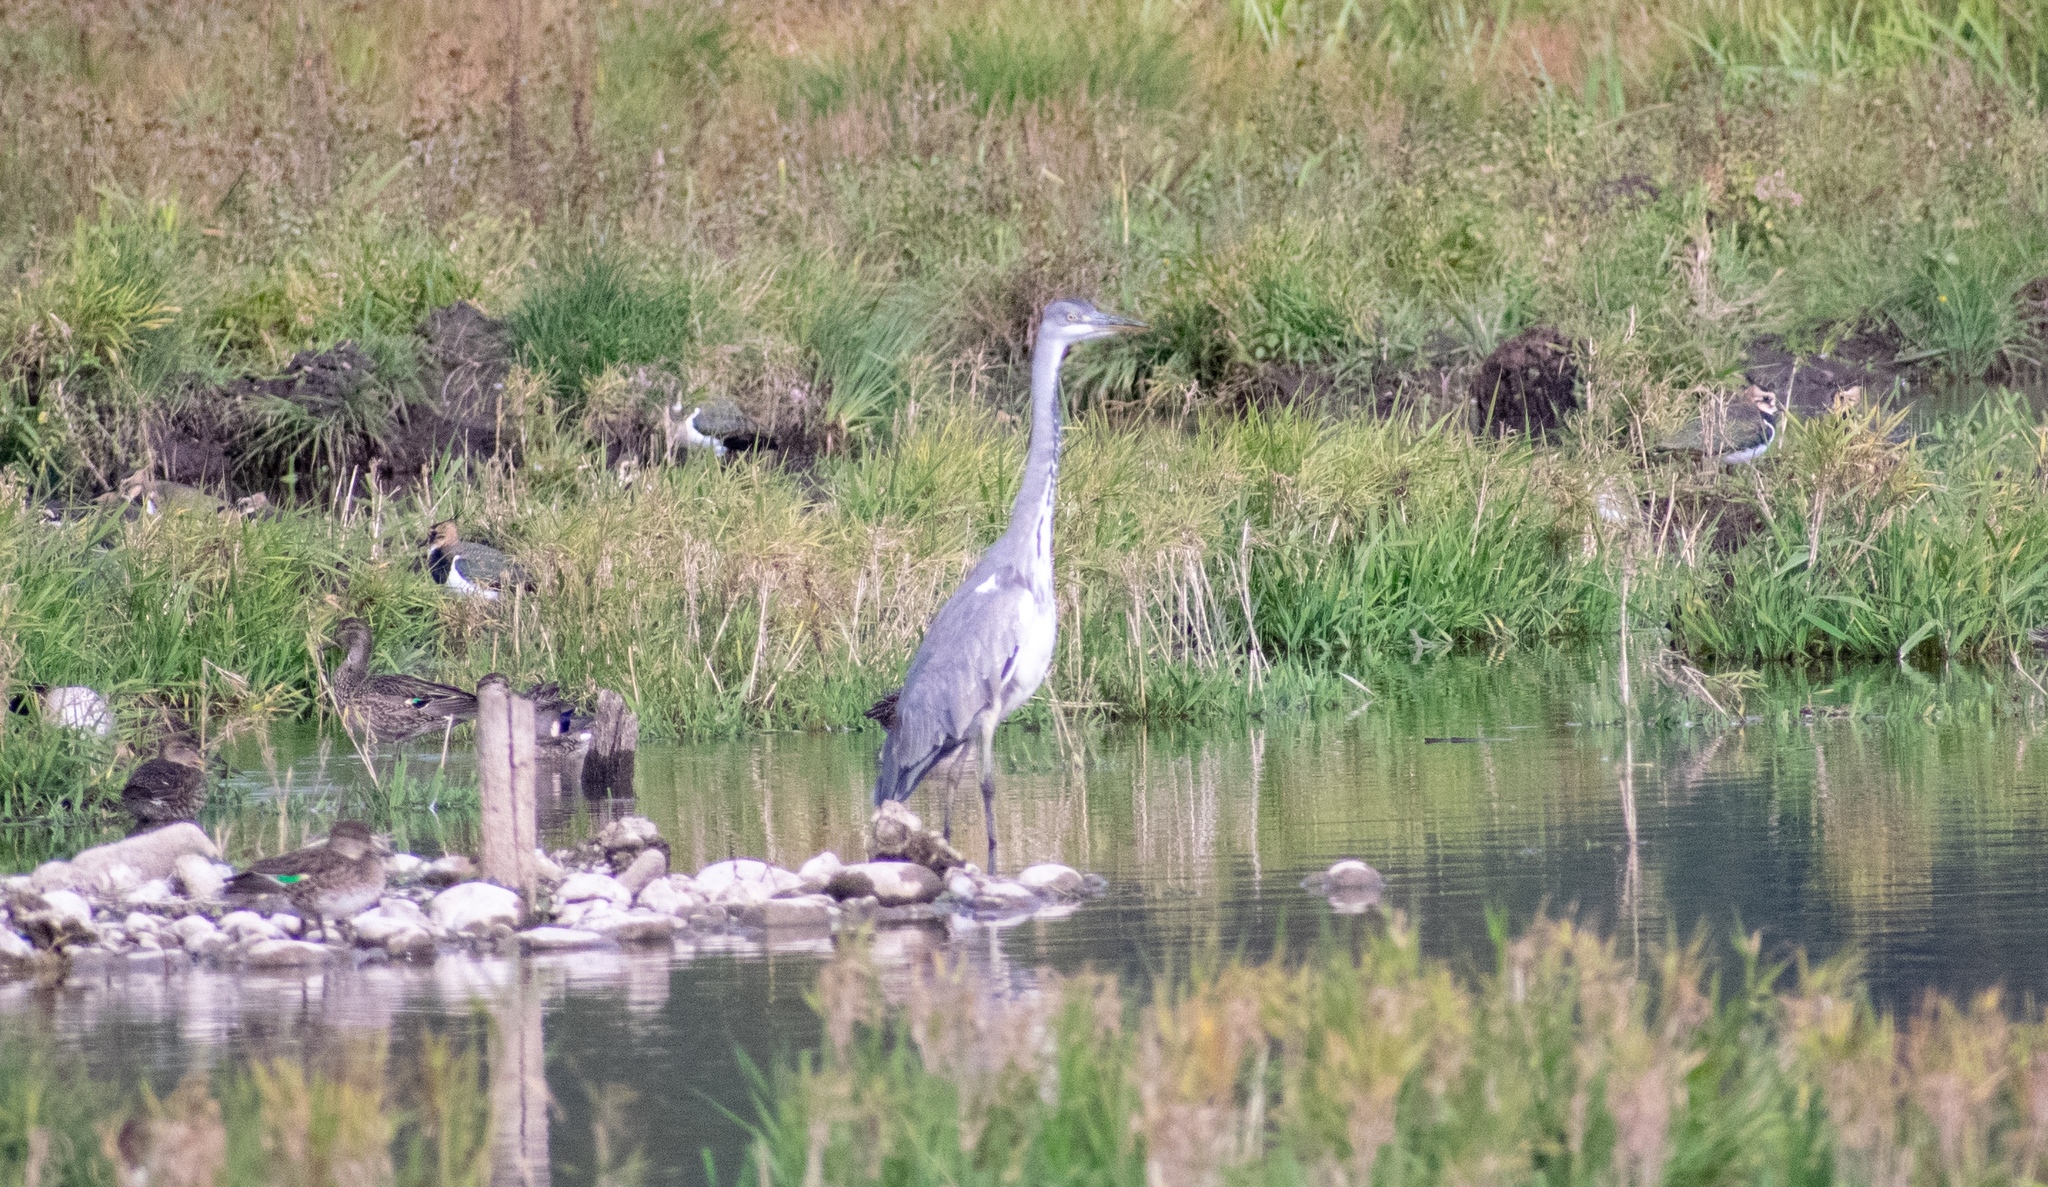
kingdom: Animalia
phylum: Chordata
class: Aves
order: Pelecaniformes
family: Ardeidae
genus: Ardea
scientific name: Ardea cinerea
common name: Grey heron
